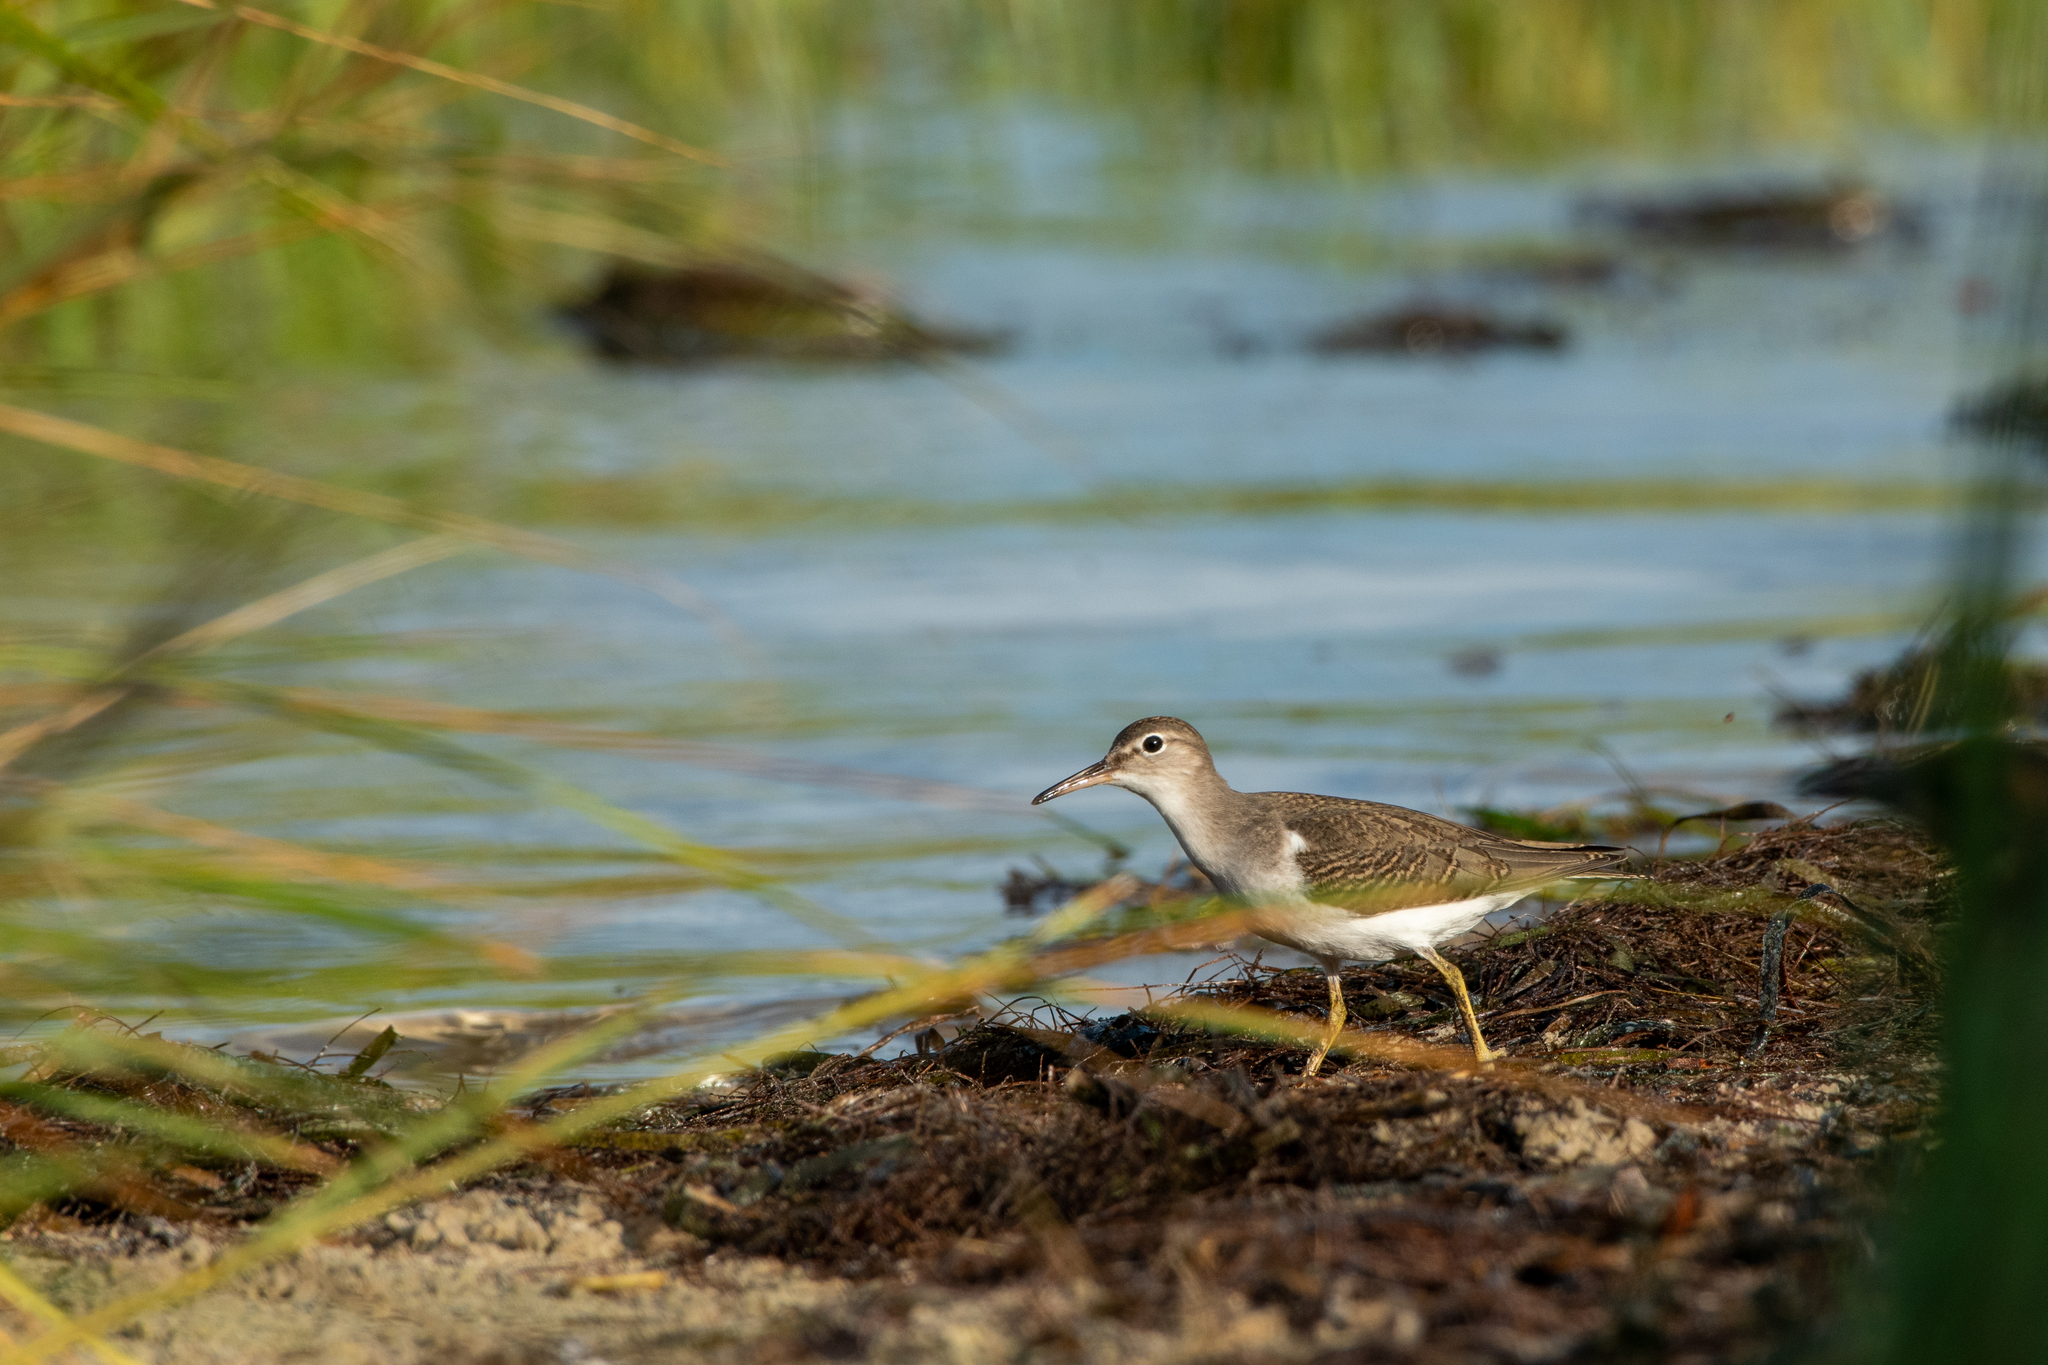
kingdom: Animalia
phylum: Chordata
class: Aves
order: Charadriiformes
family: Scolopacidae
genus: Actitis
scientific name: Actitis macularius
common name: Spotted sandpiper
